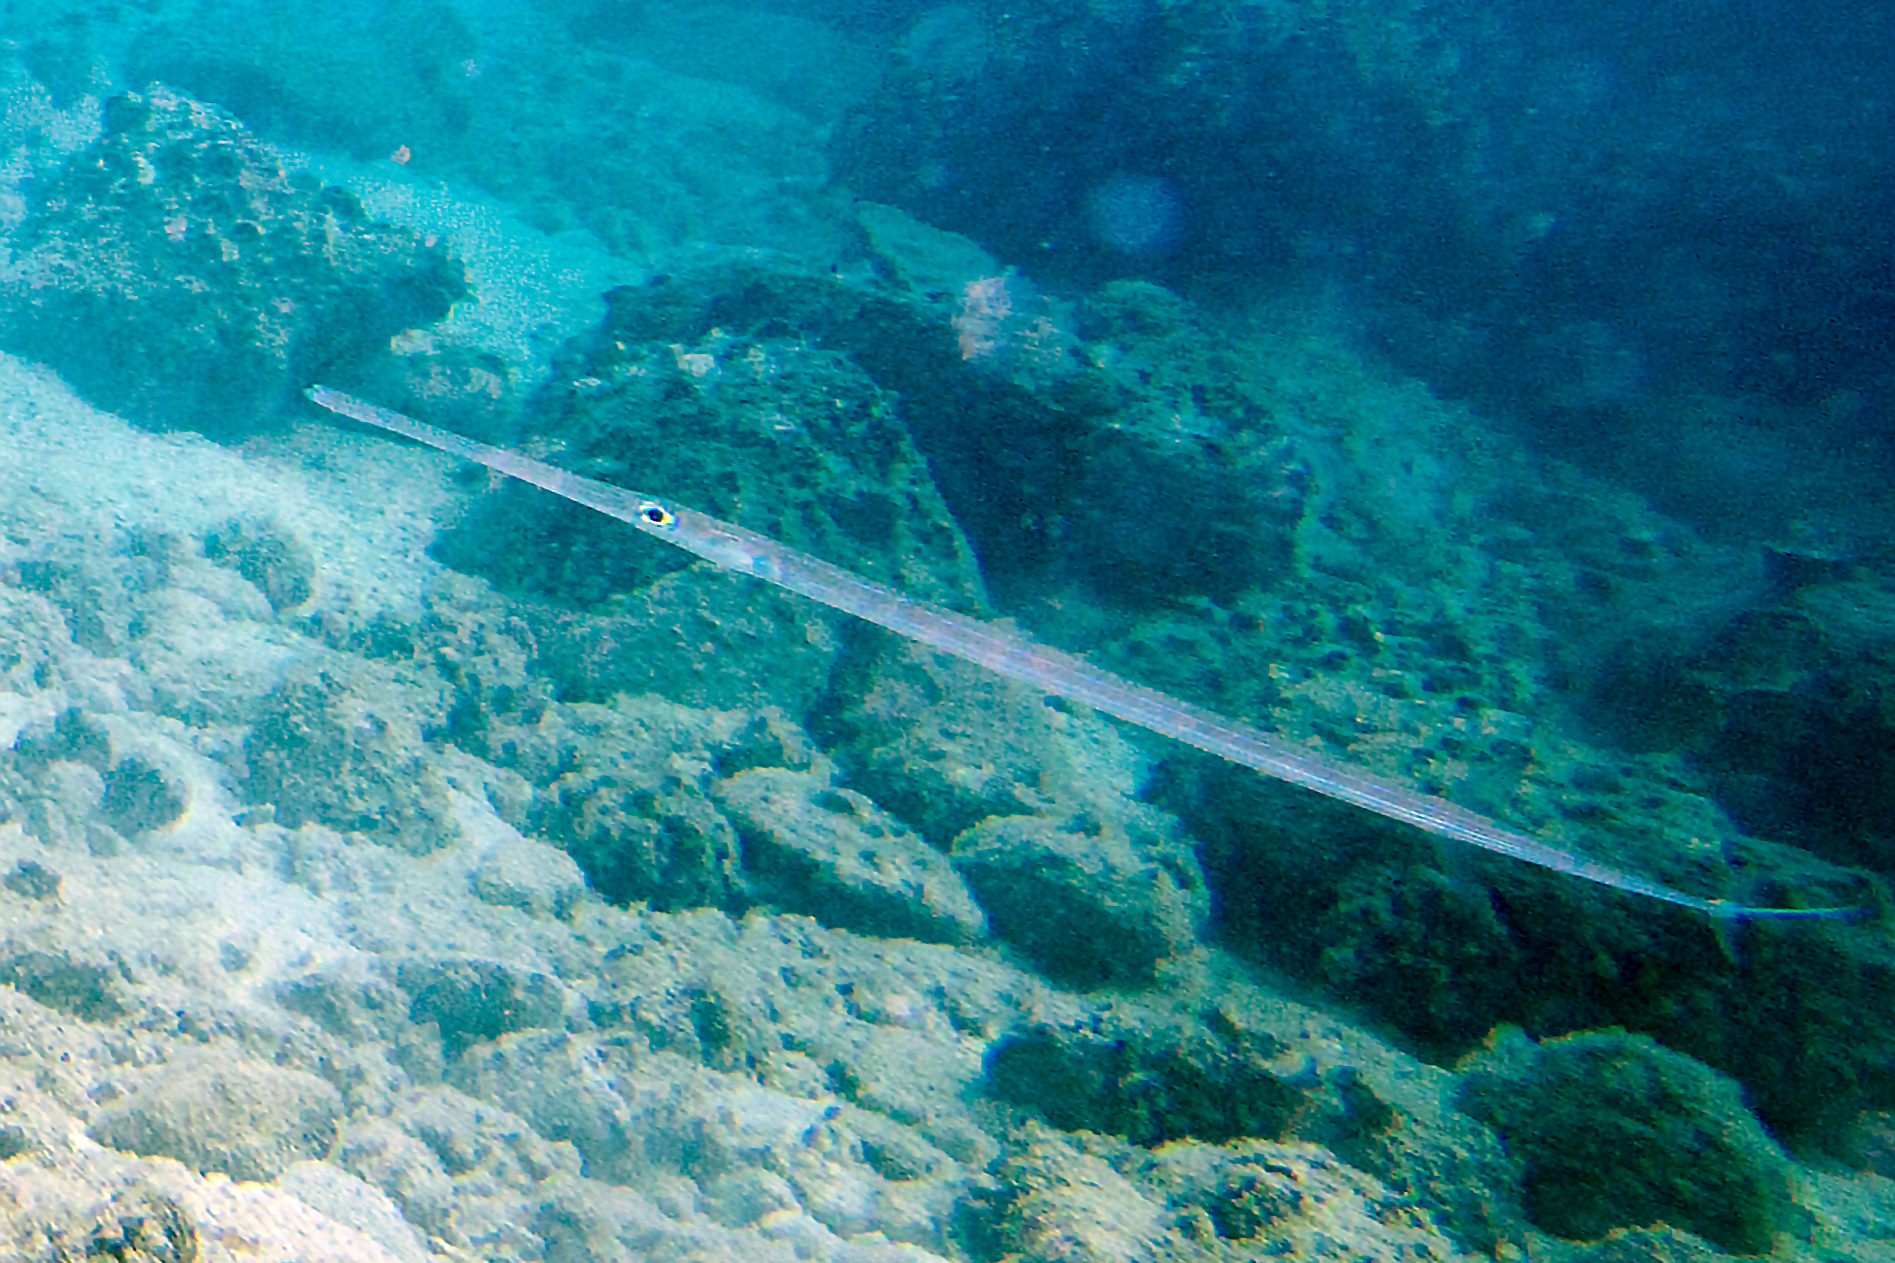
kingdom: Animalia
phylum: Chordata
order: Syngnathiformes
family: Fistulariidae
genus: Fistularia
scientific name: Fistularia commersonii
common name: Bluespotted cornetfish
